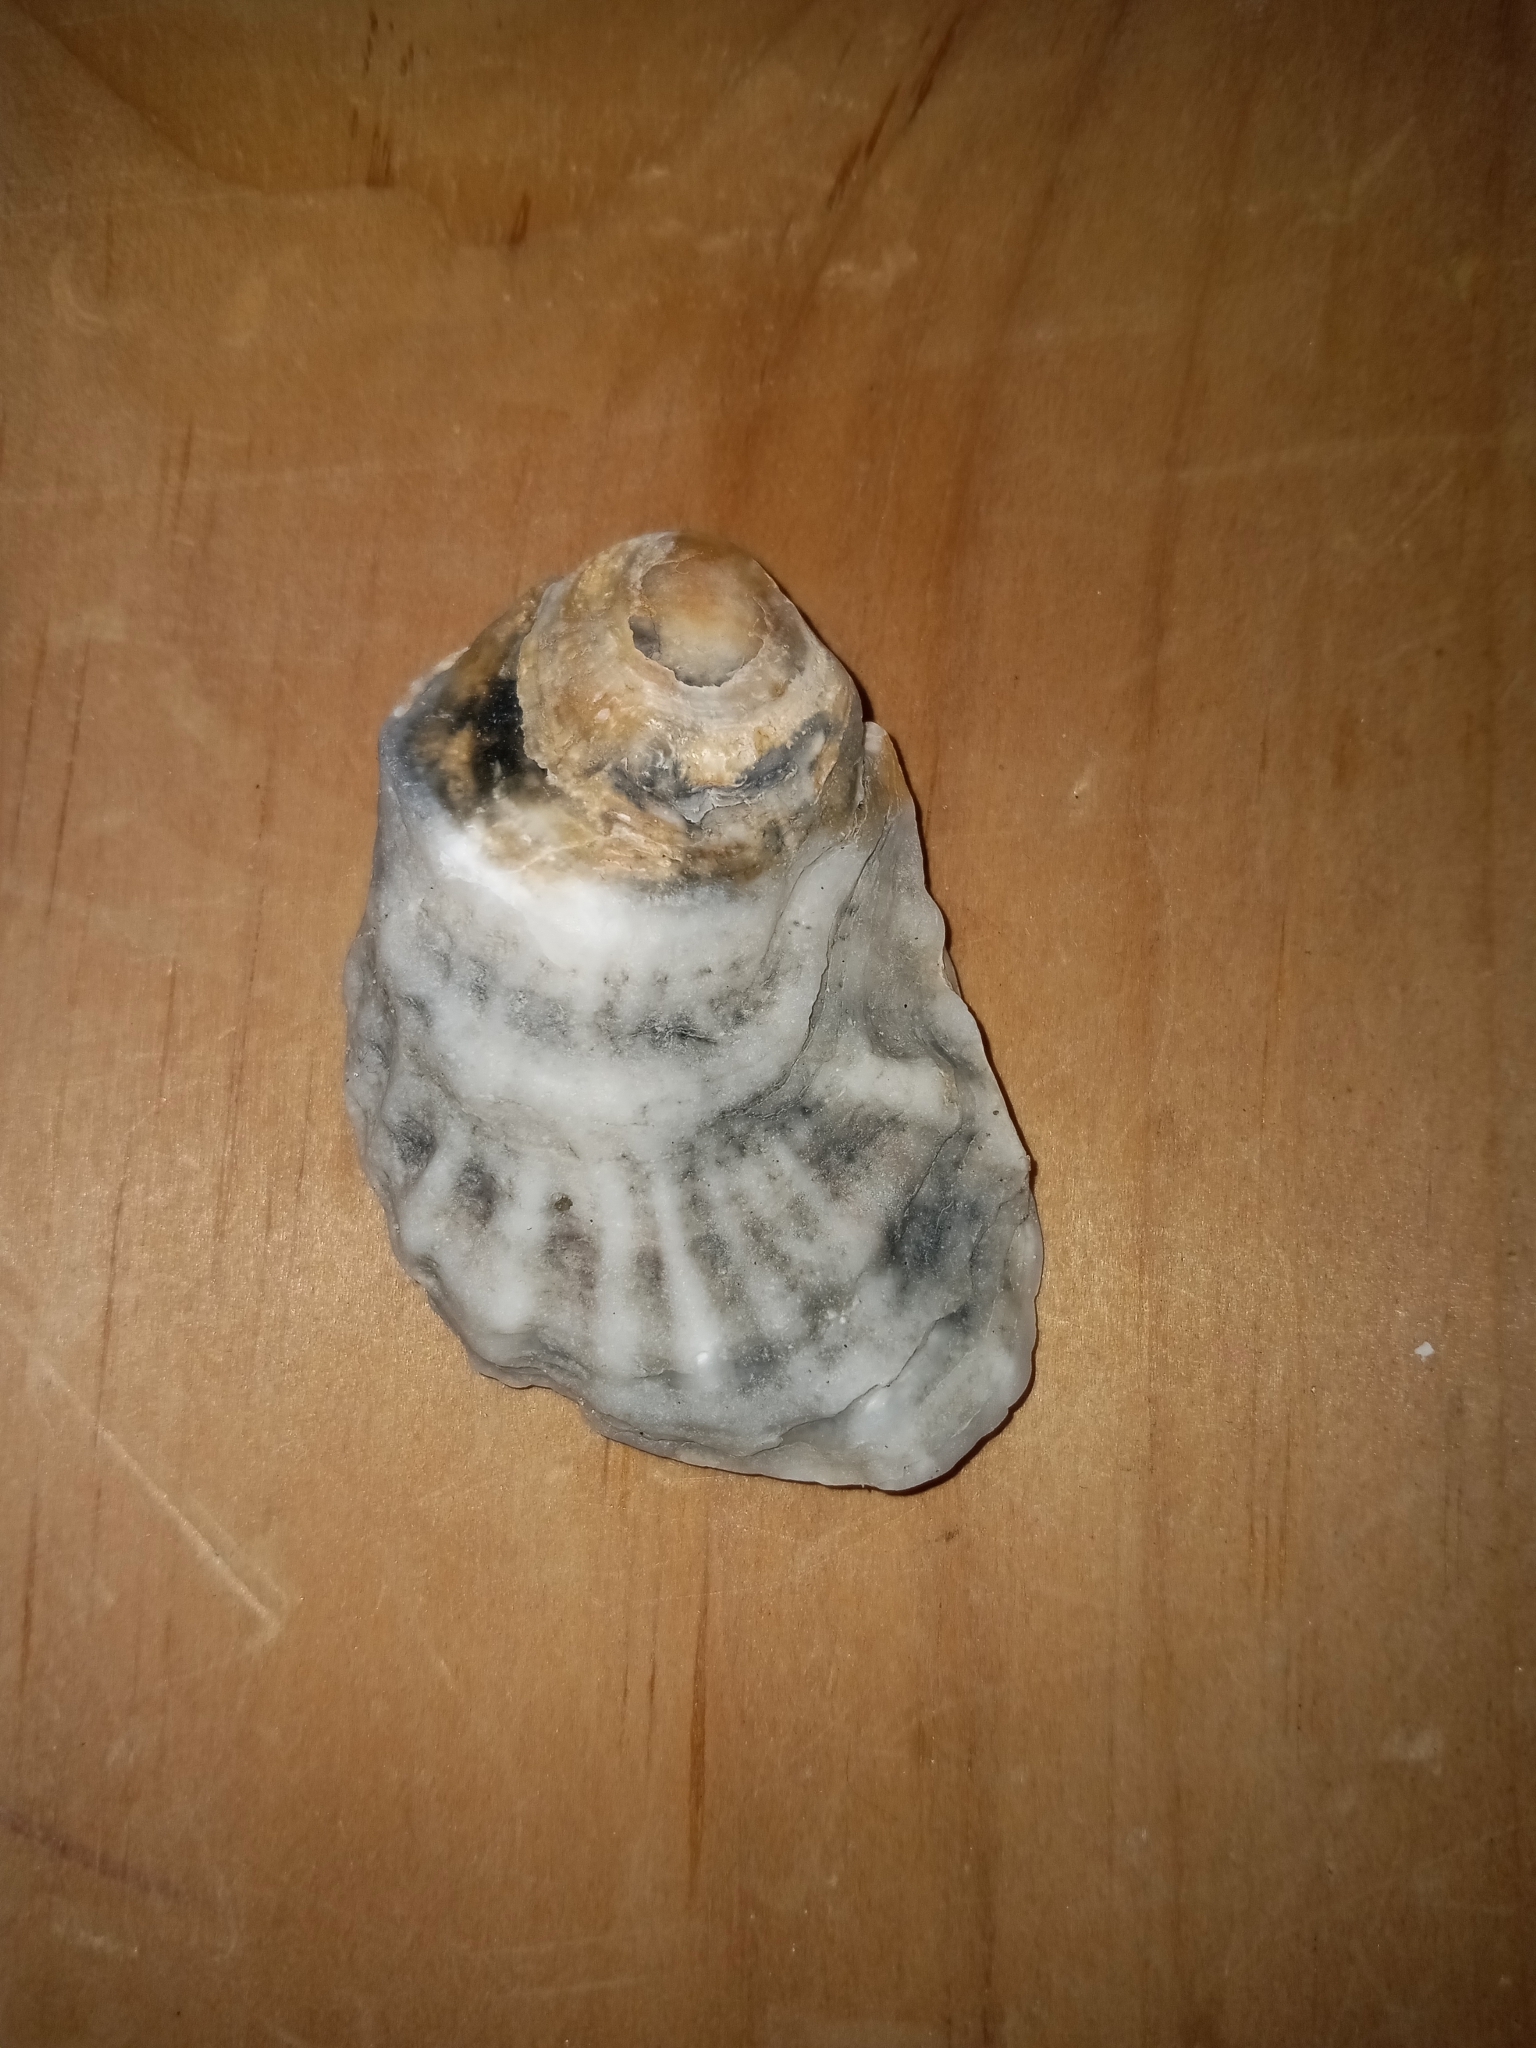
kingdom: Animalia
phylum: Mollusca
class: Bivalvia
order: Ostreida
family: Ostreidae
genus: Crassostrea
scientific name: Crassostrea virginica
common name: American oyster
